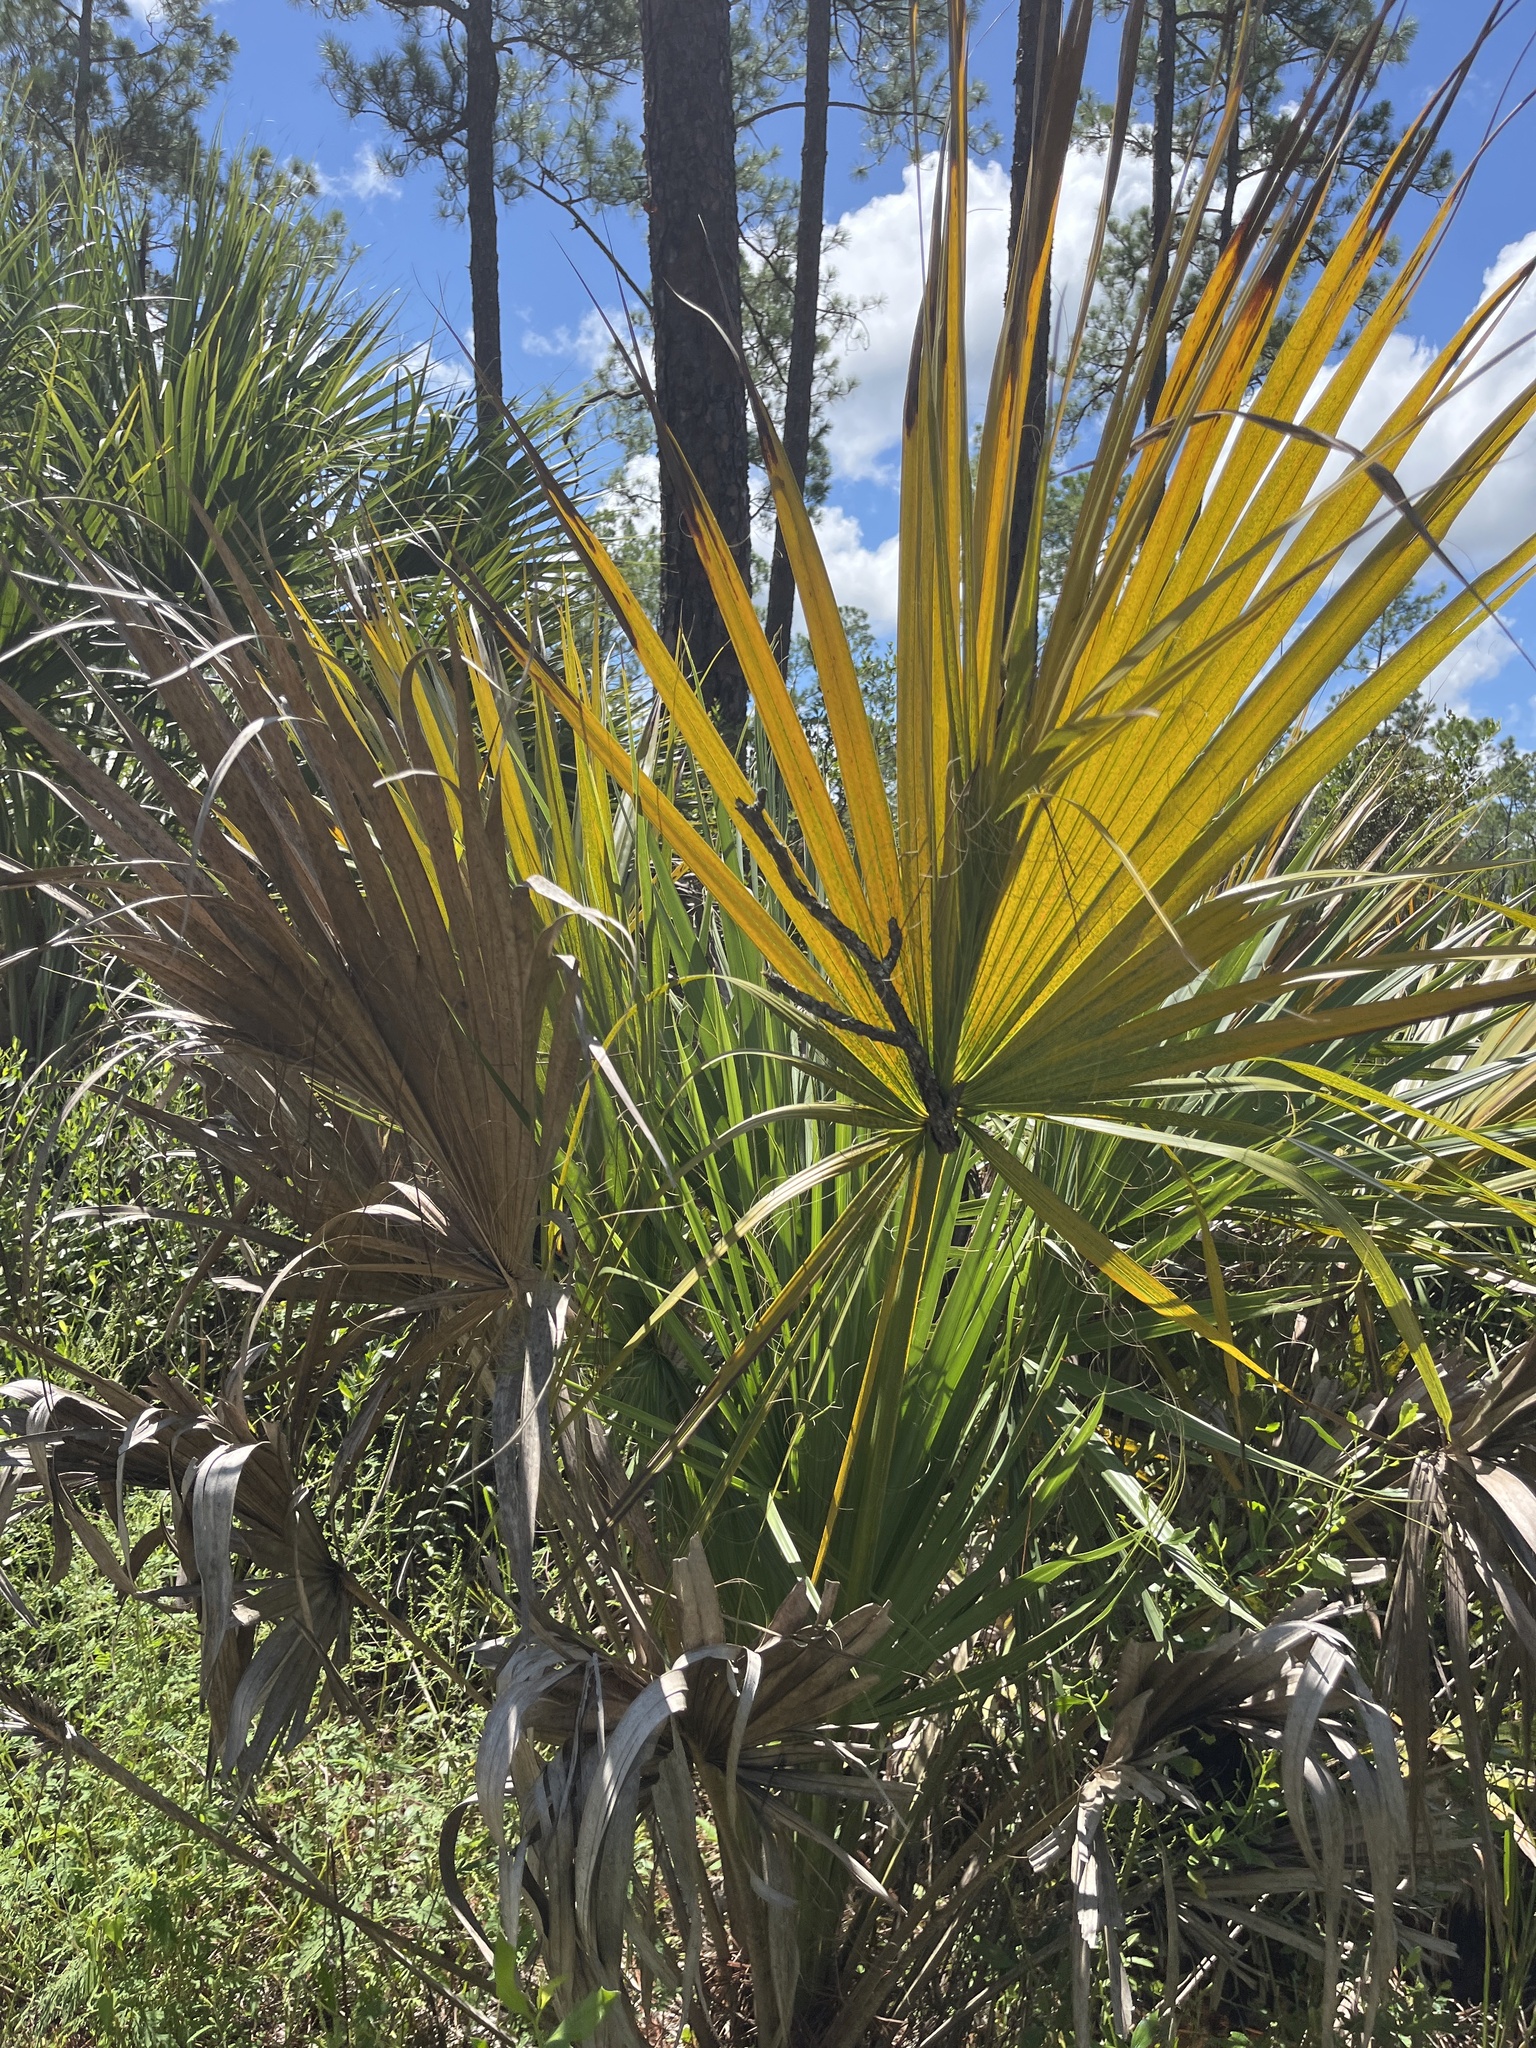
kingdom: Plantae
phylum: Tracheophyta
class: Liliopsida
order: Arecales
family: Arecaceae
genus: Sabal
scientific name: Sabal palmetto
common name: Blue palmetto
